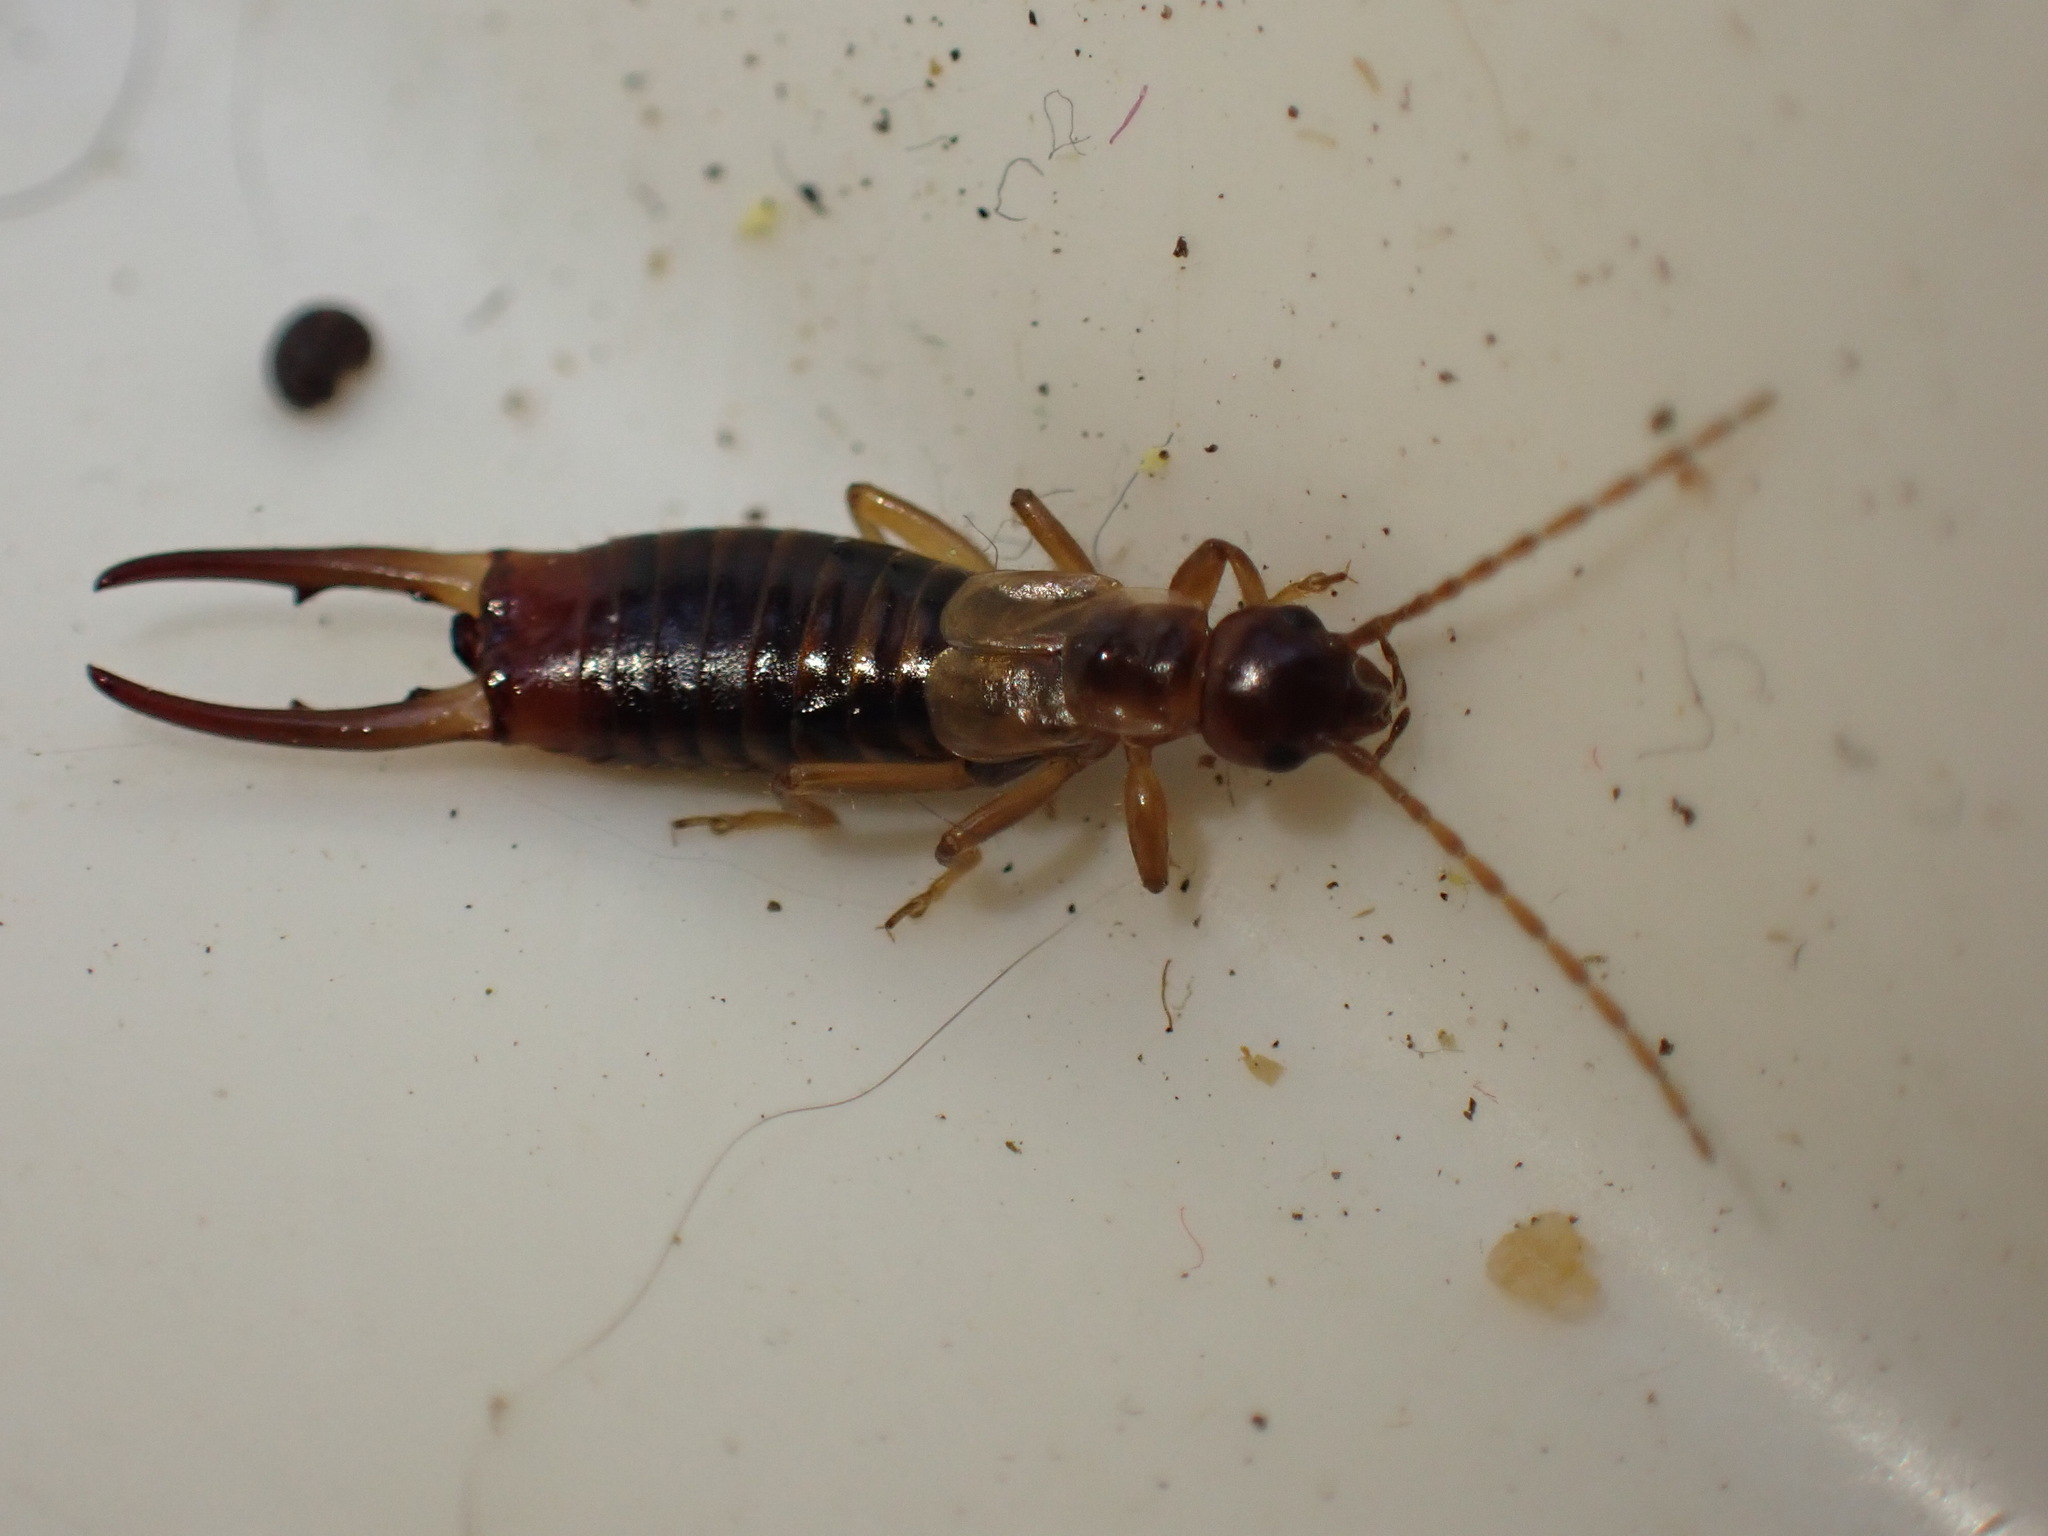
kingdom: Animalia
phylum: Arthropoda
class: Insecta
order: Dermaptera
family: Forficulidae
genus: Apterygida
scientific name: Apterygida albipennis
